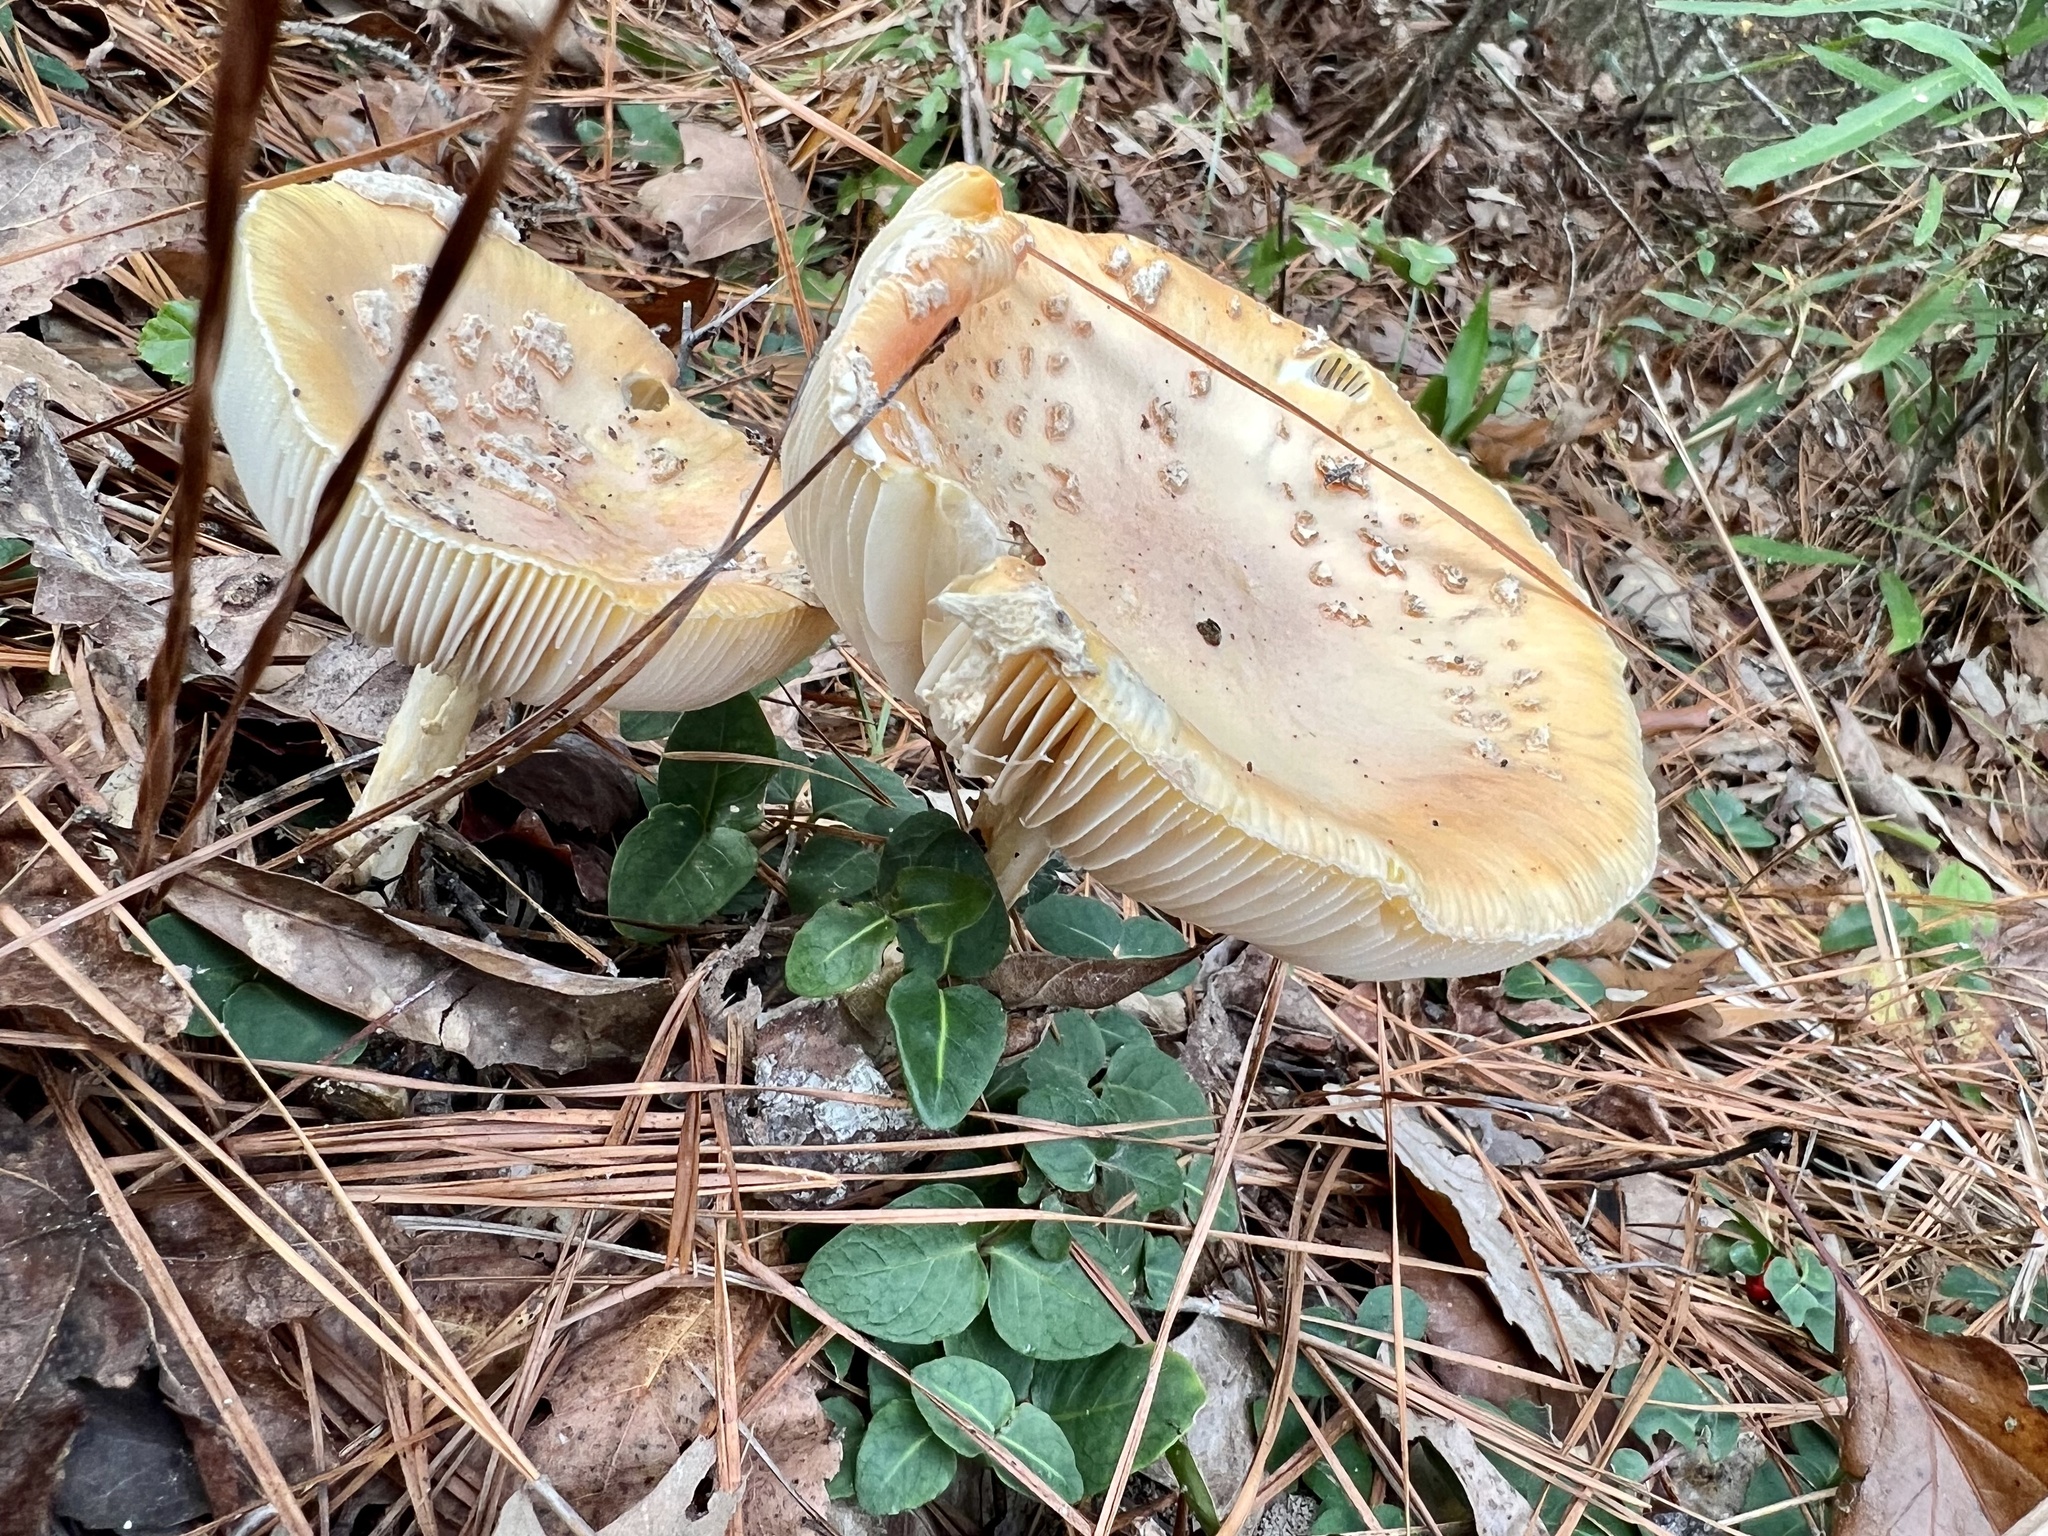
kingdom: Fungi
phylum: Basidiomycota
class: Agaricomycetes
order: Agaricales
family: Amanitaceae
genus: Amanita
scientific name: Amanita persicina
